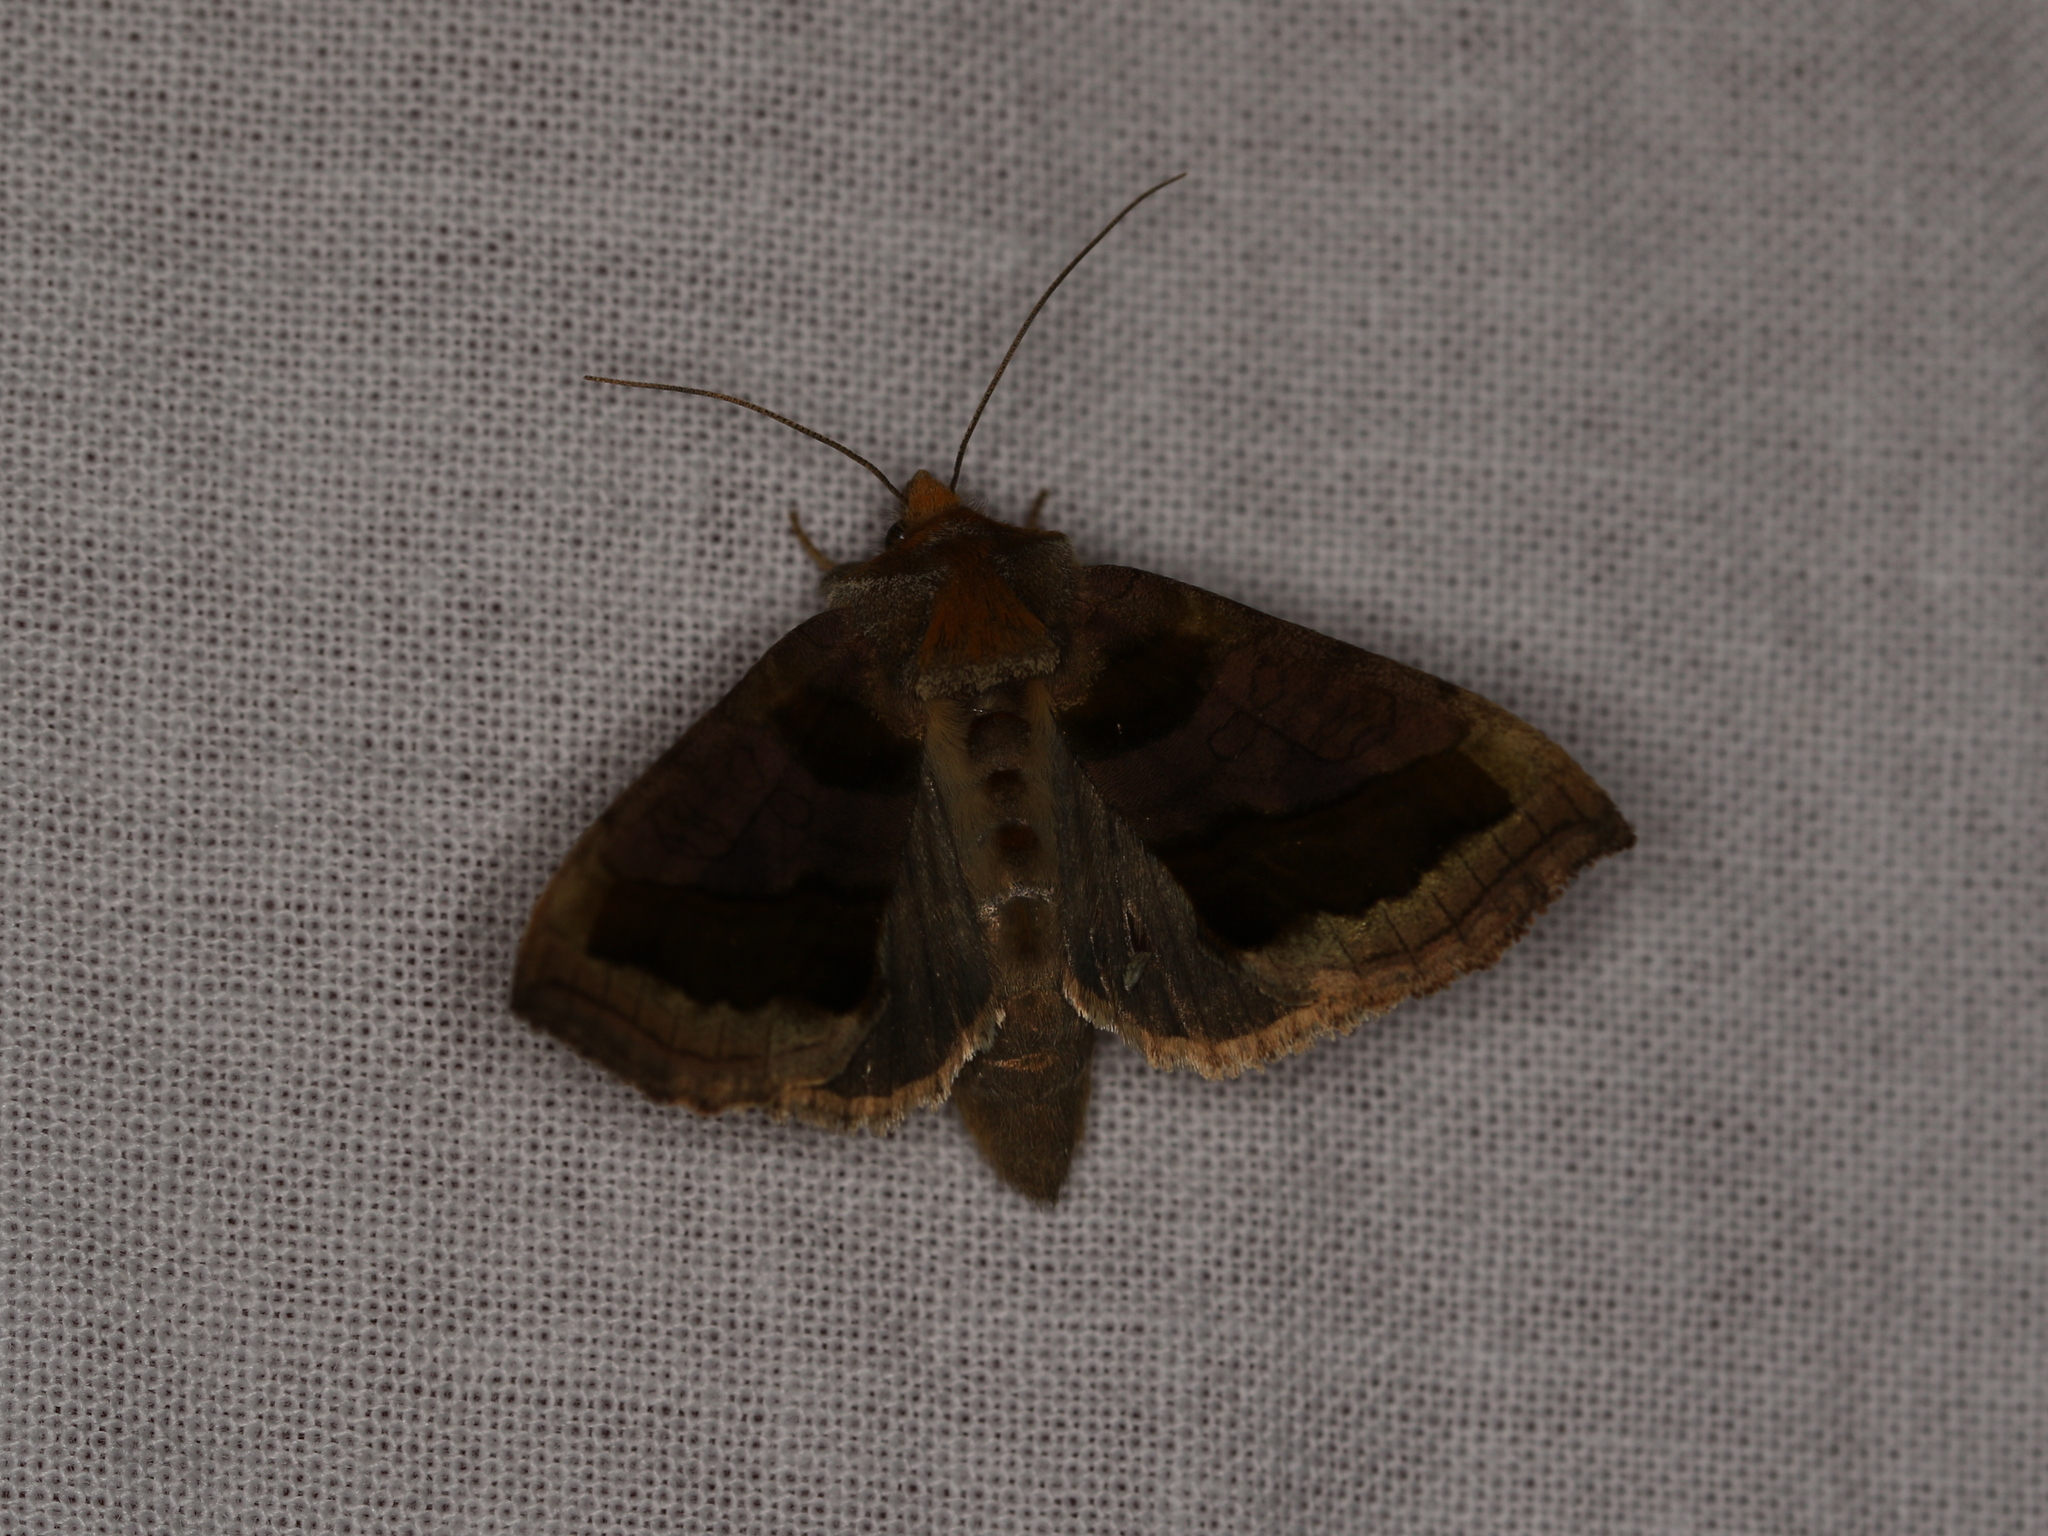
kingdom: Animalia
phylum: Arthropoda
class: Insecta
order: Lepidoptera
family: Noctuidae
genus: Diachrysia
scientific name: Diachrysia chrysitis
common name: Burnished brass
